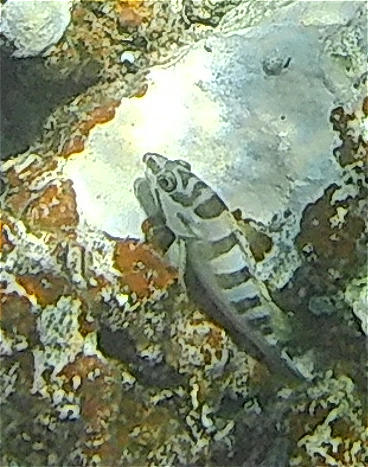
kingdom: Animalia
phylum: Chordata
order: Perciformes
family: Serranidae
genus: Epinephelus
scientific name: Epinephelus fasciatus
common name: Blacktip grouper
